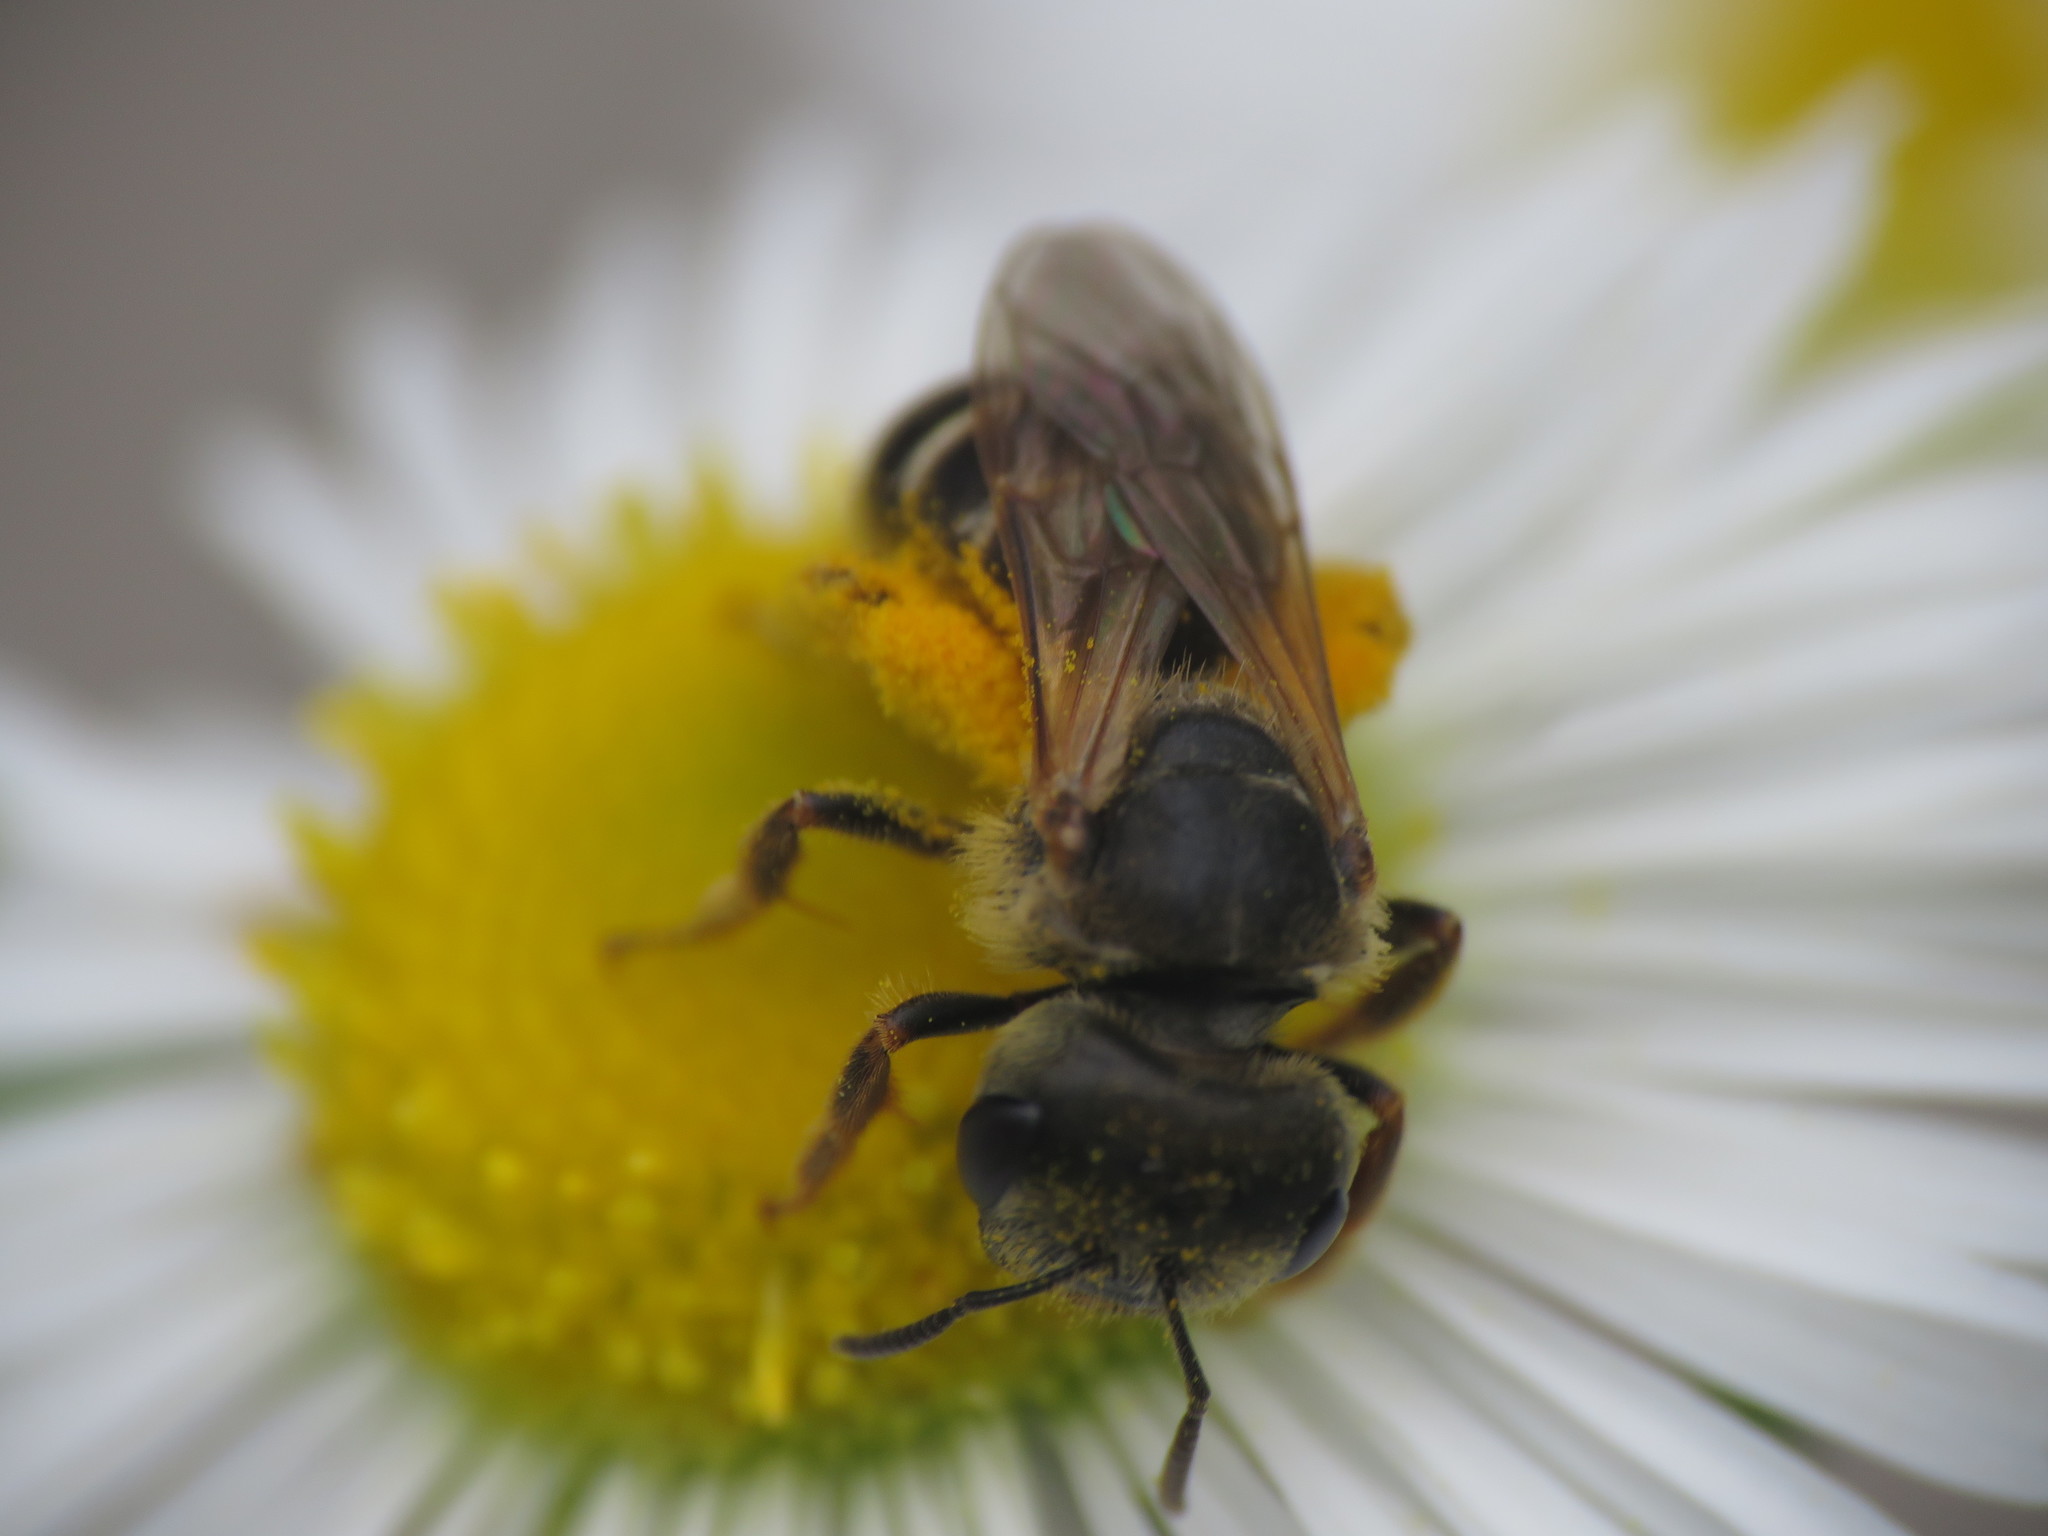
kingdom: Animalia
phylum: Arthropoda
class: Insecta
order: Hymenoptera
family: Halictidae
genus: Halictus
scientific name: Halictus ligatus
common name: Ligated furrow bee
